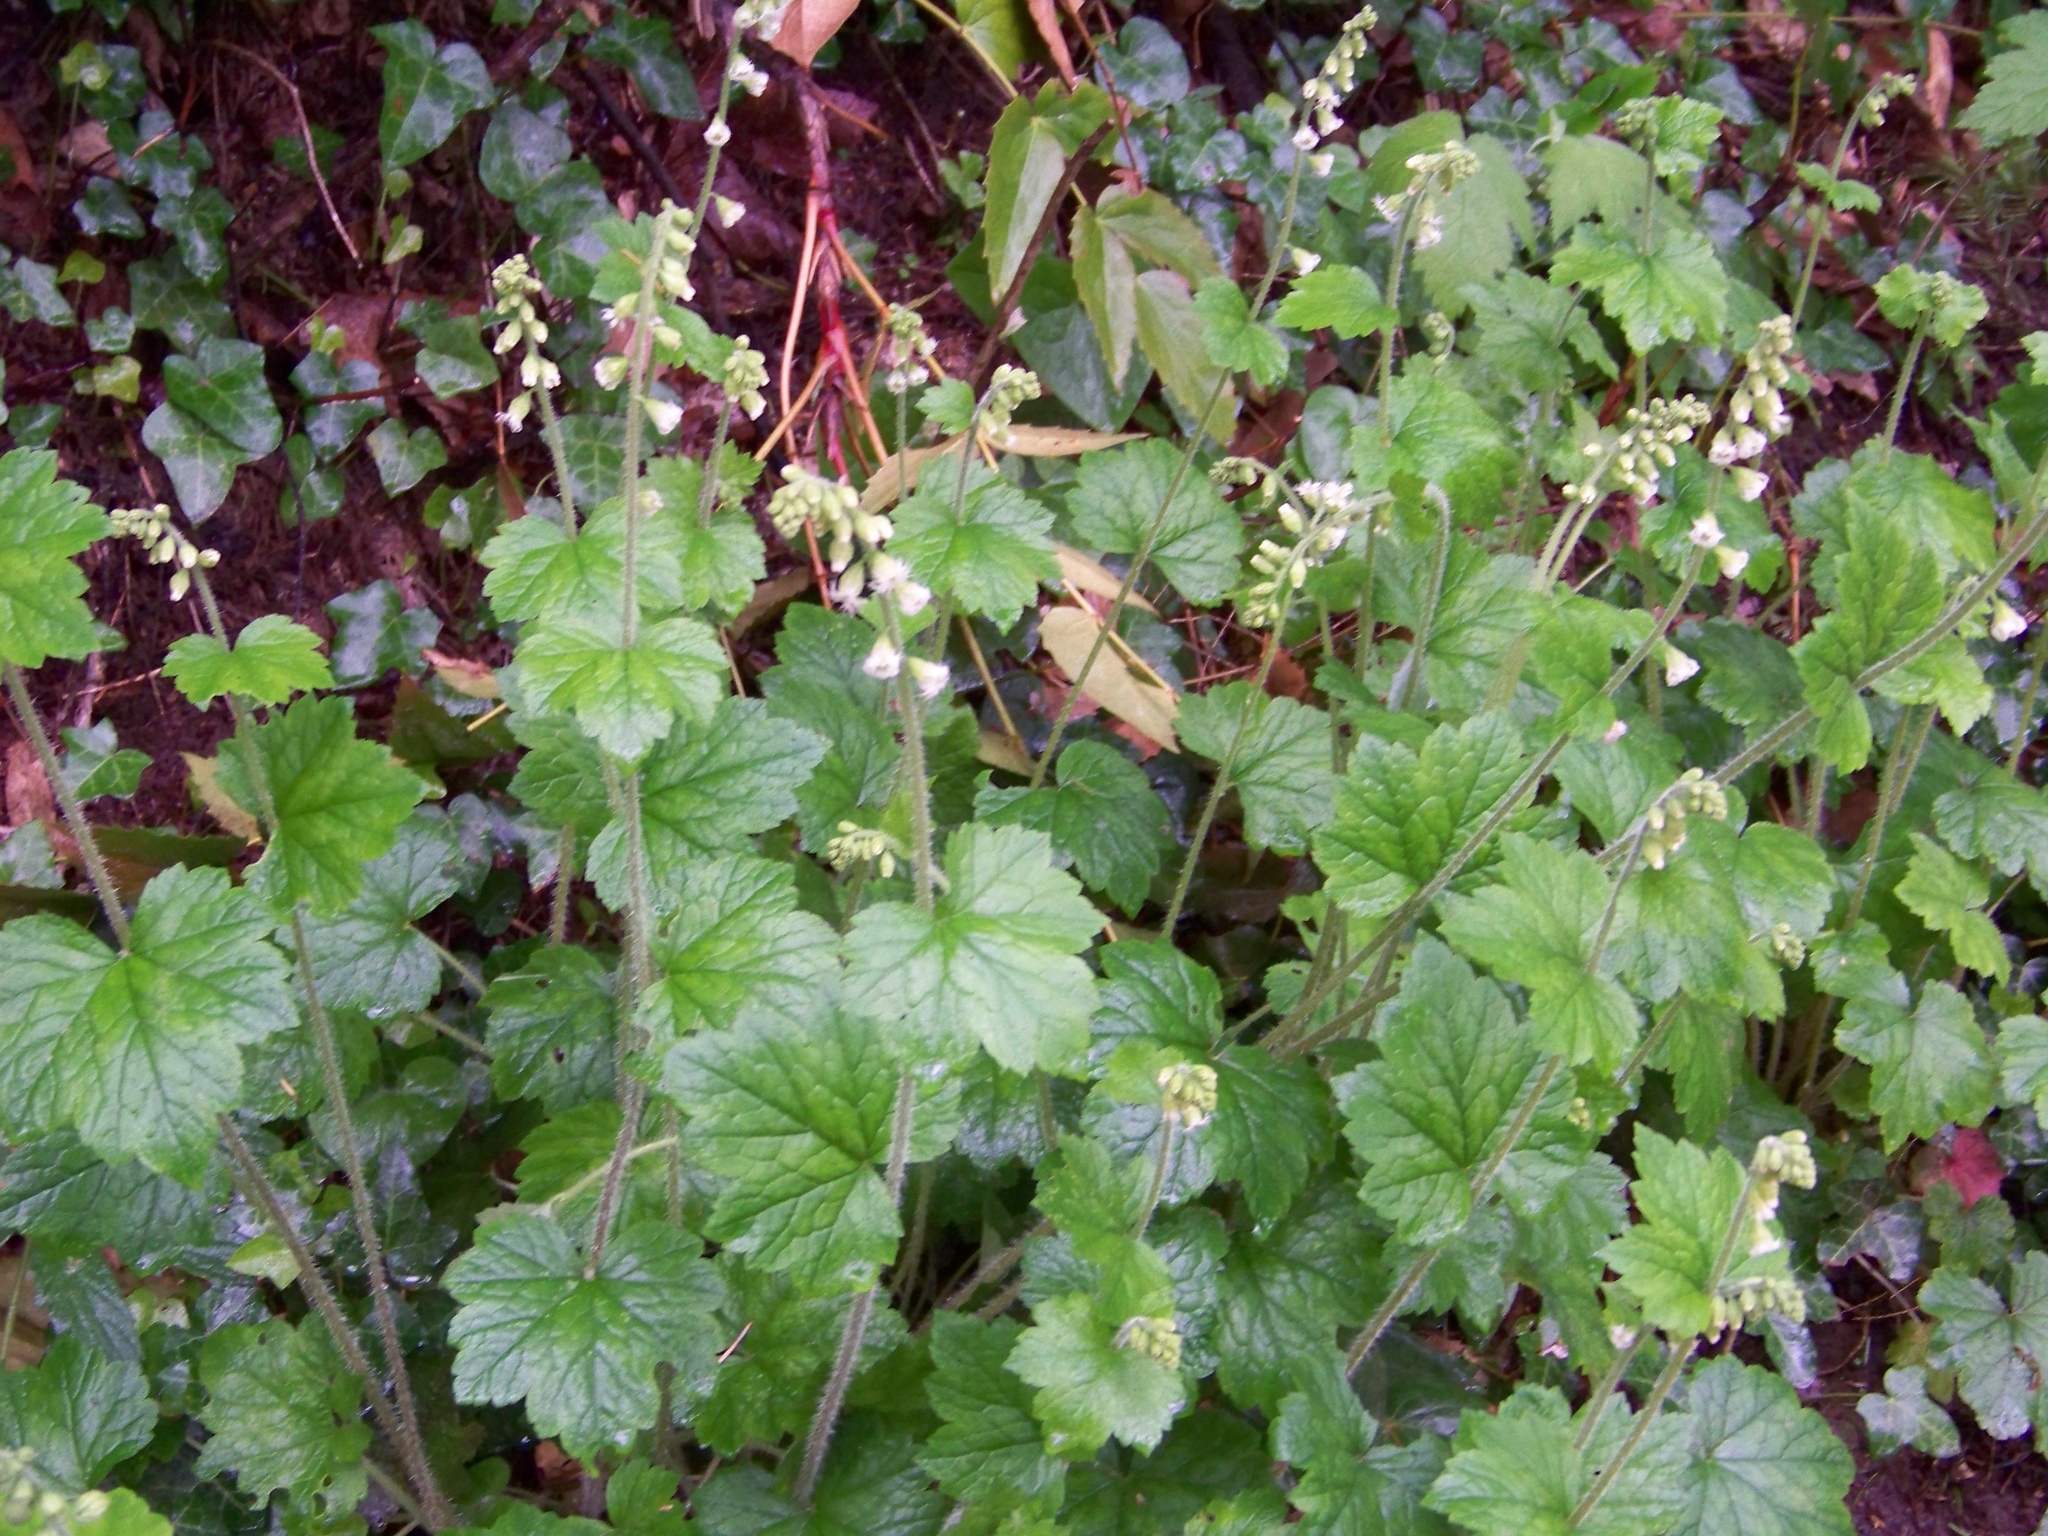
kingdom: Plantae
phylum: Tracheophyta
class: Magnoliopsida
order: Saxifragales
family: Saxifragaceae
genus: Tellima
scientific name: Tellima grandiflora
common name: Fringecups
